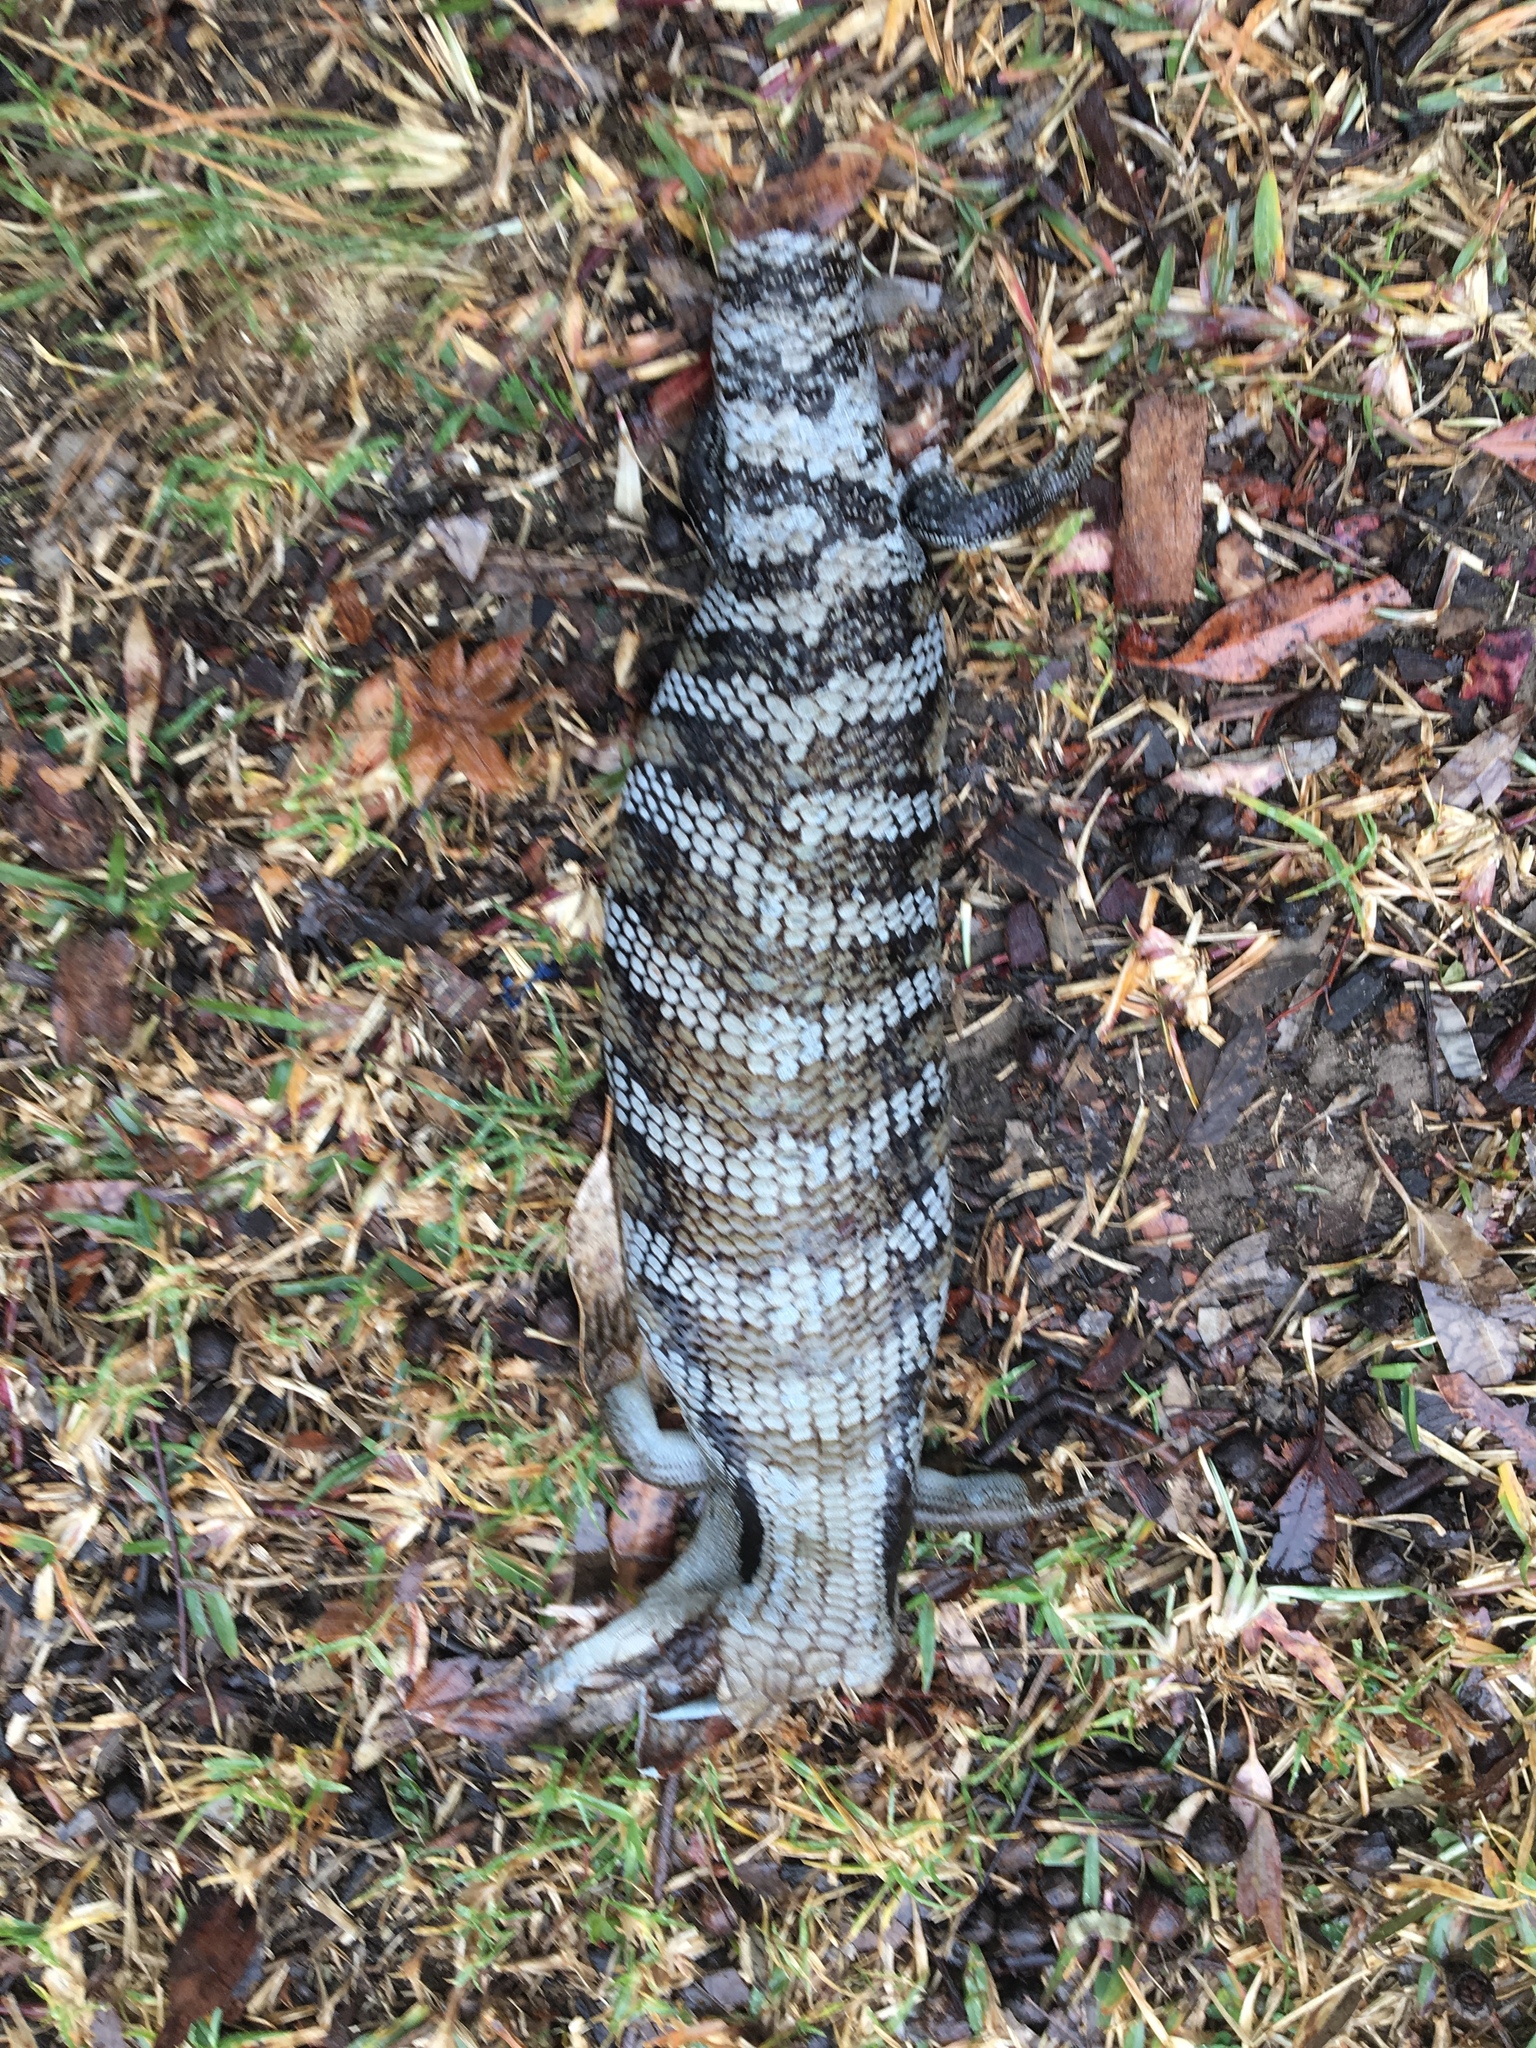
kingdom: Animalia
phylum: Chordata
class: Squamata
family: Scincidae
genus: Tiliqua
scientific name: Tiliqua scincoides
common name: Common bluetongue
